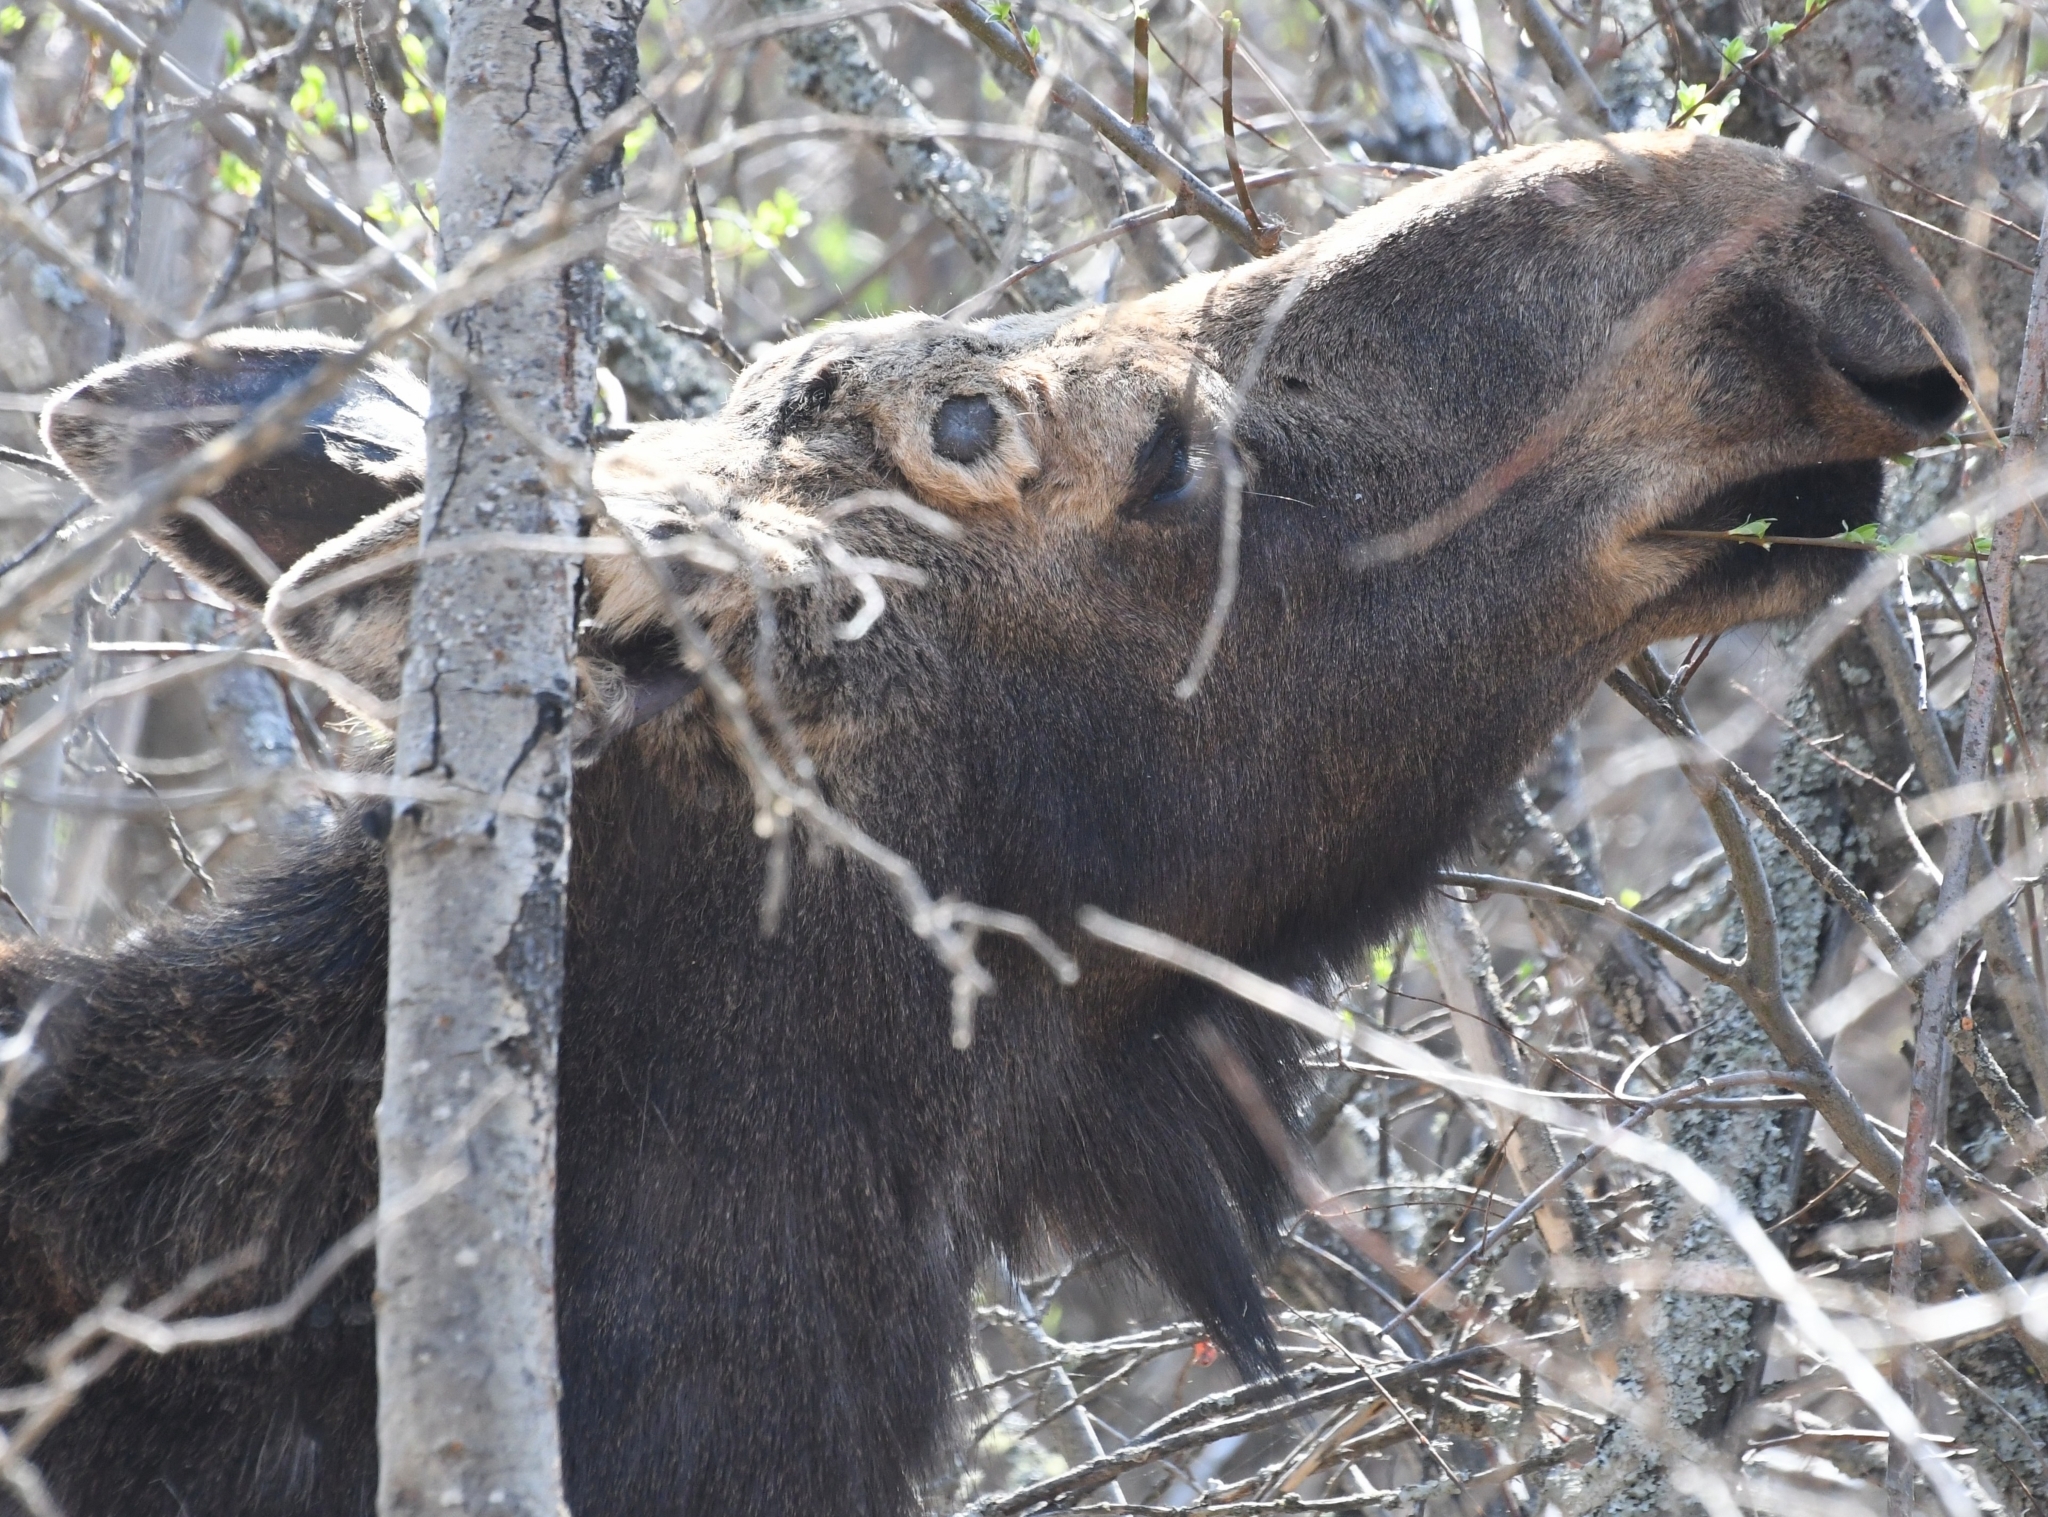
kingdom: Animalia
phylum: Chordata
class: Mammalia
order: Artiodactyla
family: Cervidae
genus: Alces
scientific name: Alces alces
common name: Moose
